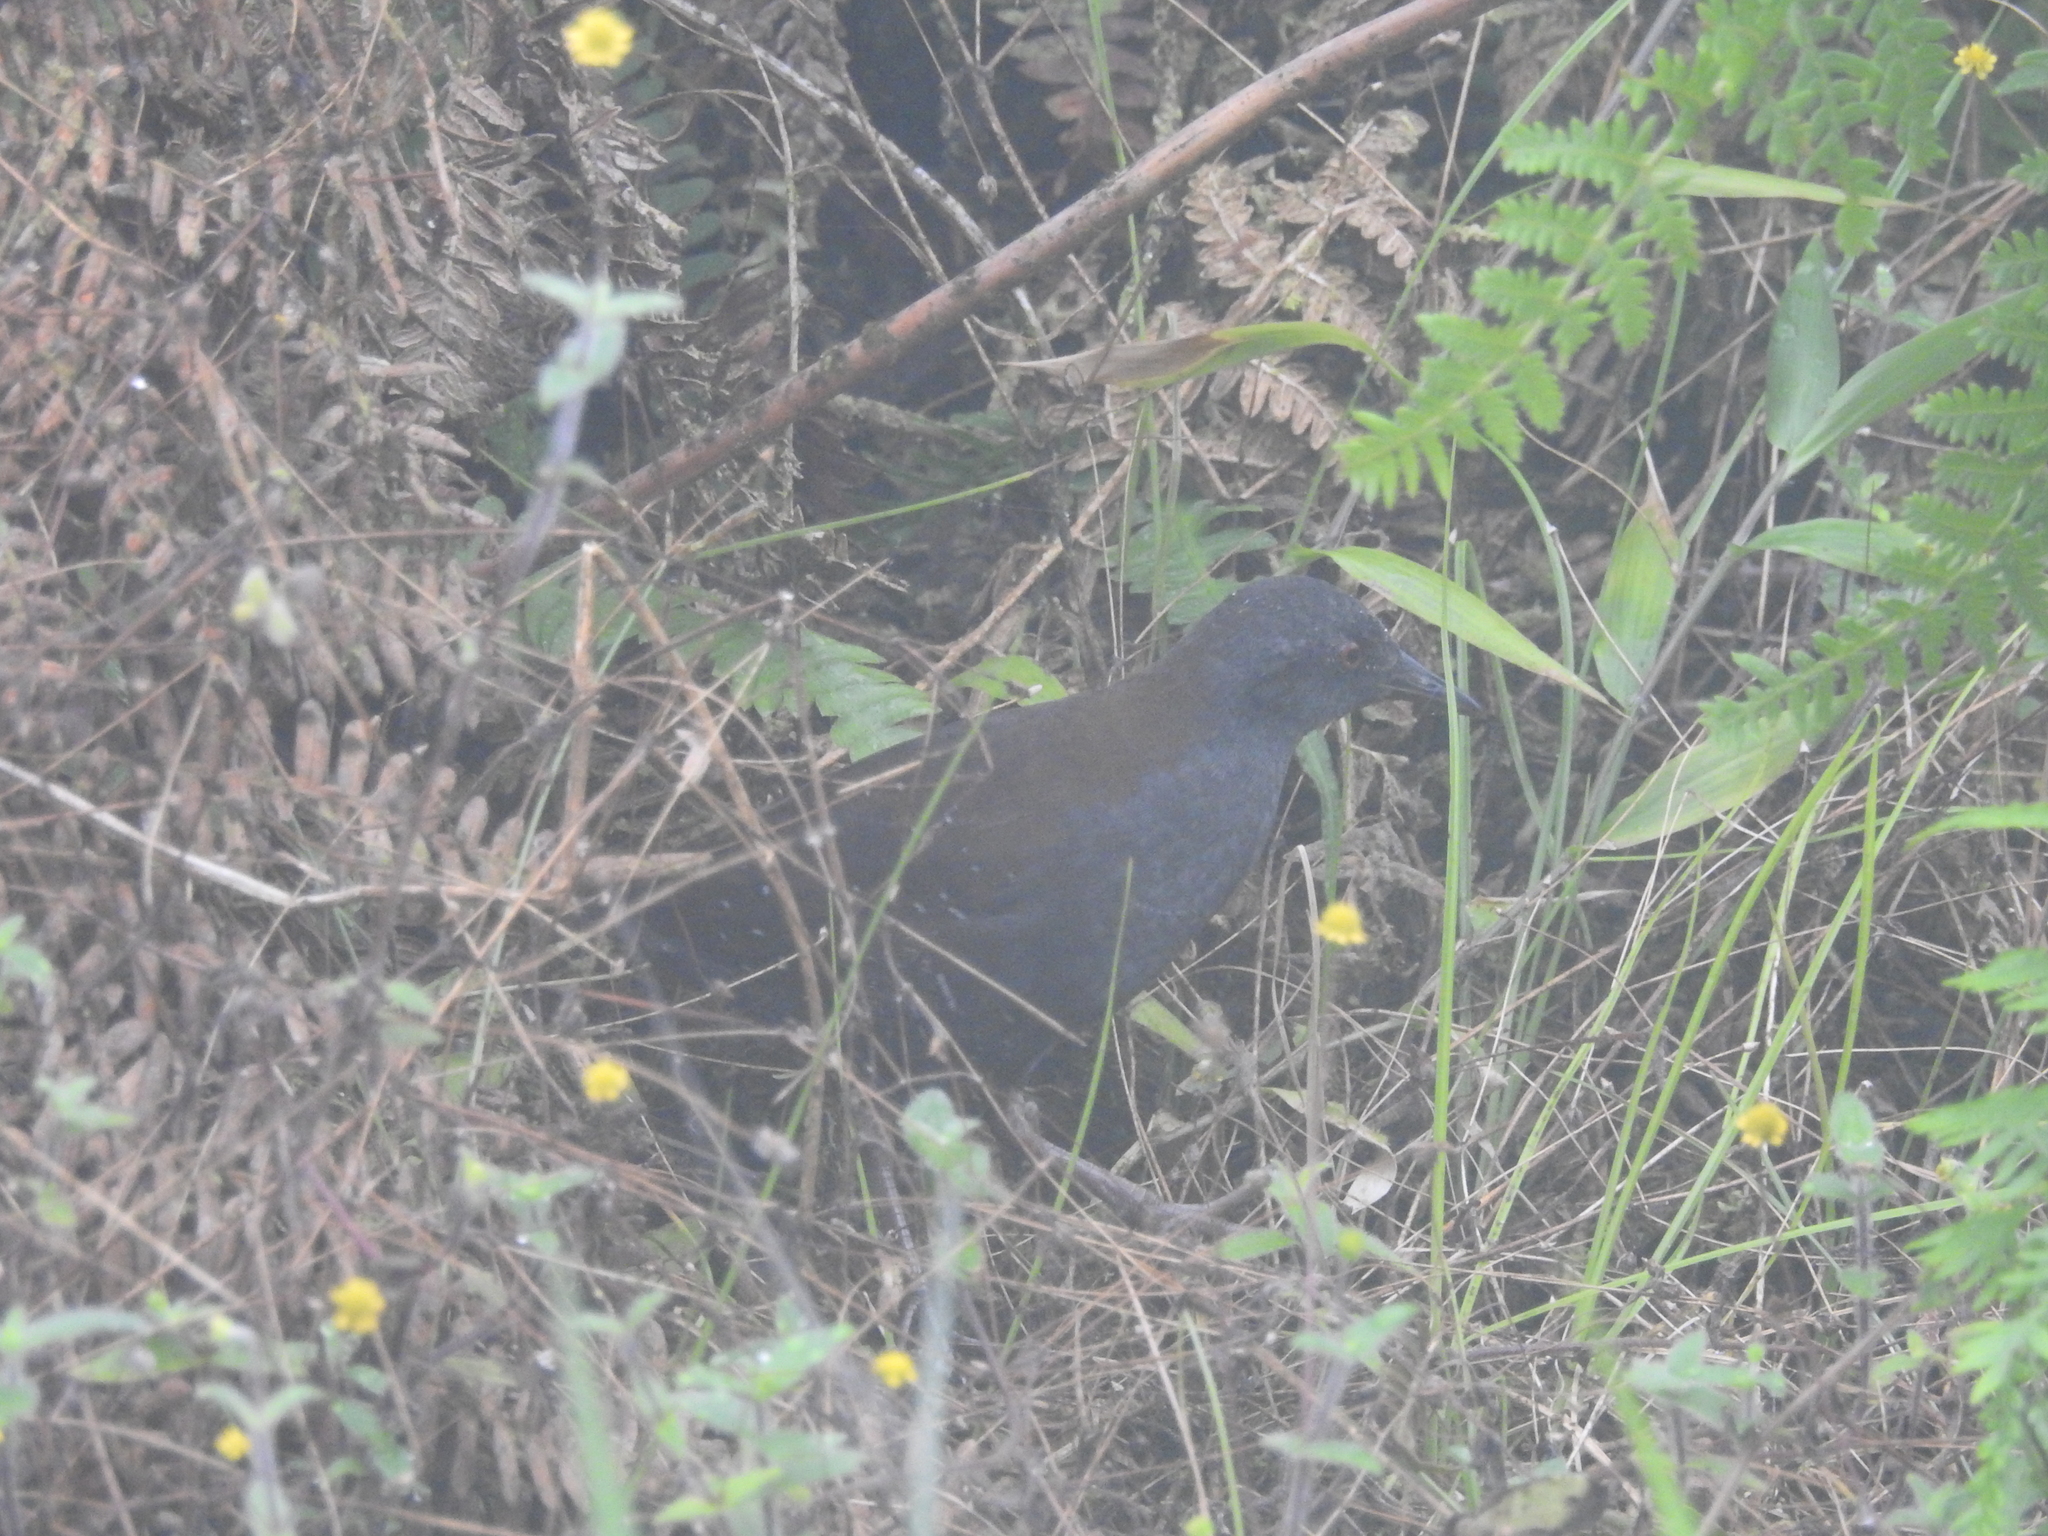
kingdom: Animalia
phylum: Chordata
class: Aves
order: Gruiformes
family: Rallidae
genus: Laterallus
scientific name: Laterallus spilonotus
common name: Galapagos crake
